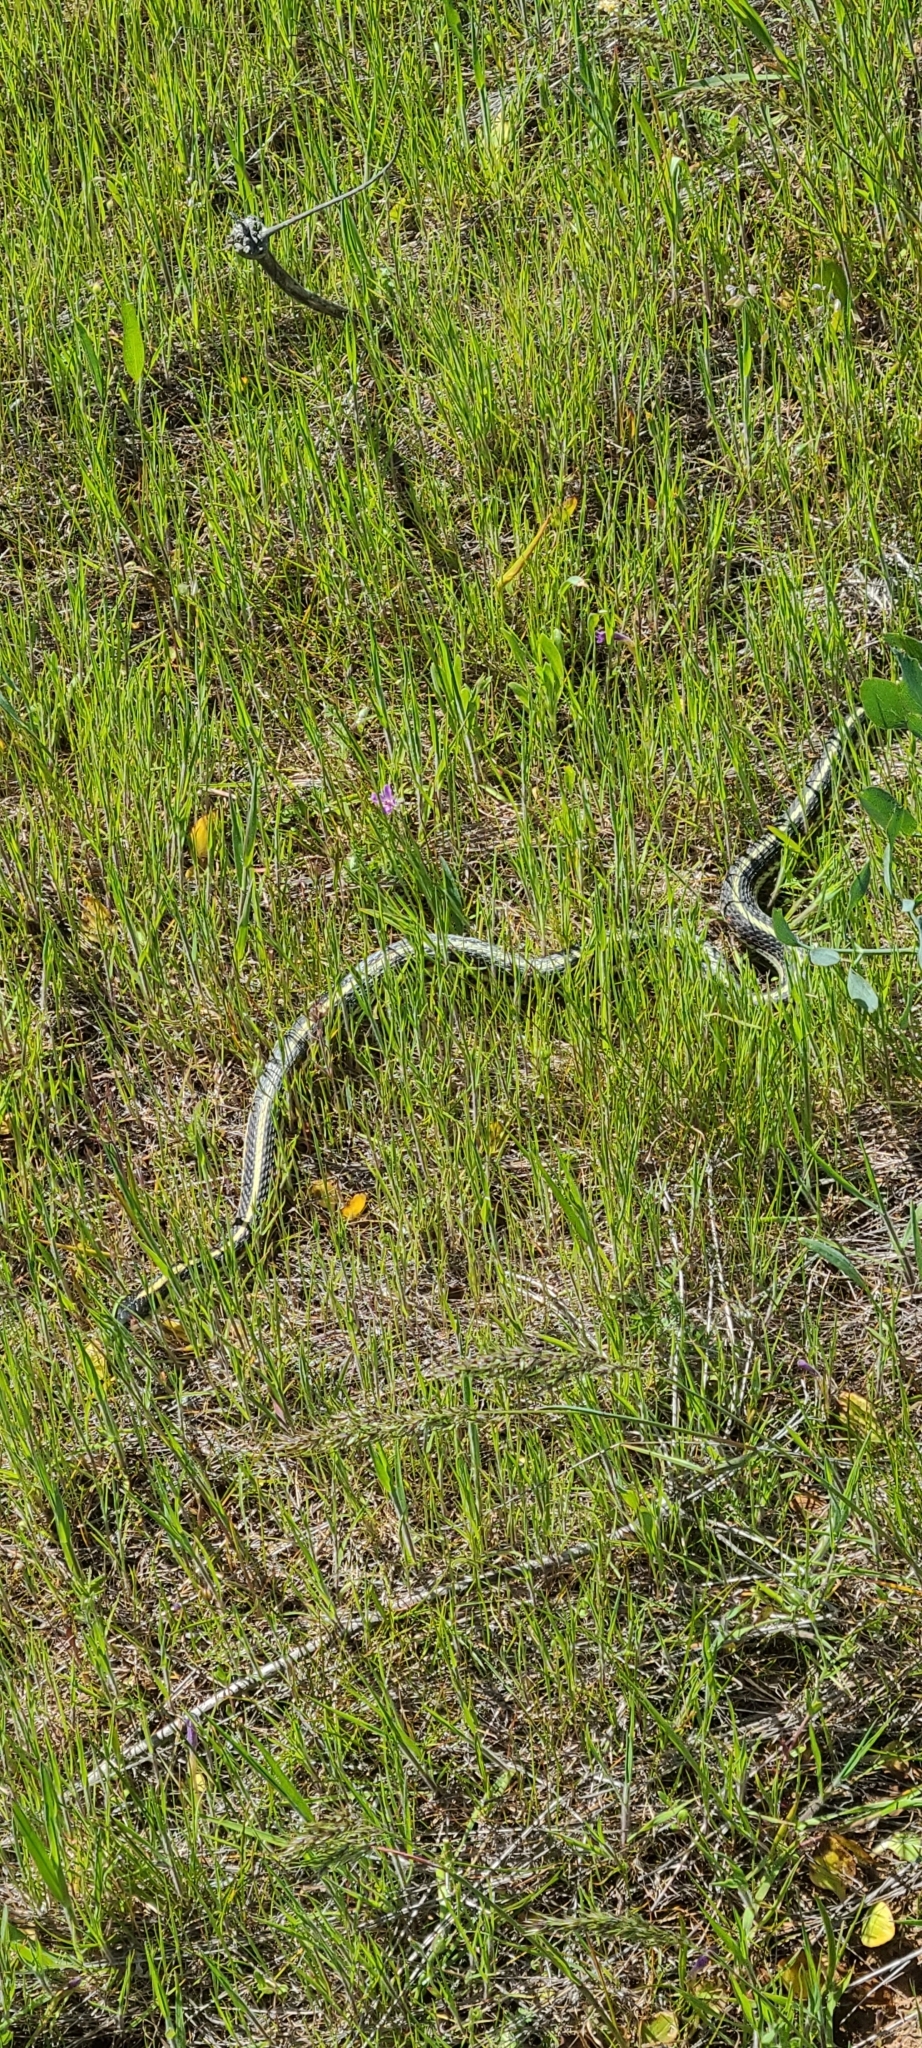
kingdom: Animalia
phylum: Chordata
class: Squamata
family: Colubridae
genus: Thamnophis
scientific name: Thamnophis sirtalis
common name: Common garter snake
